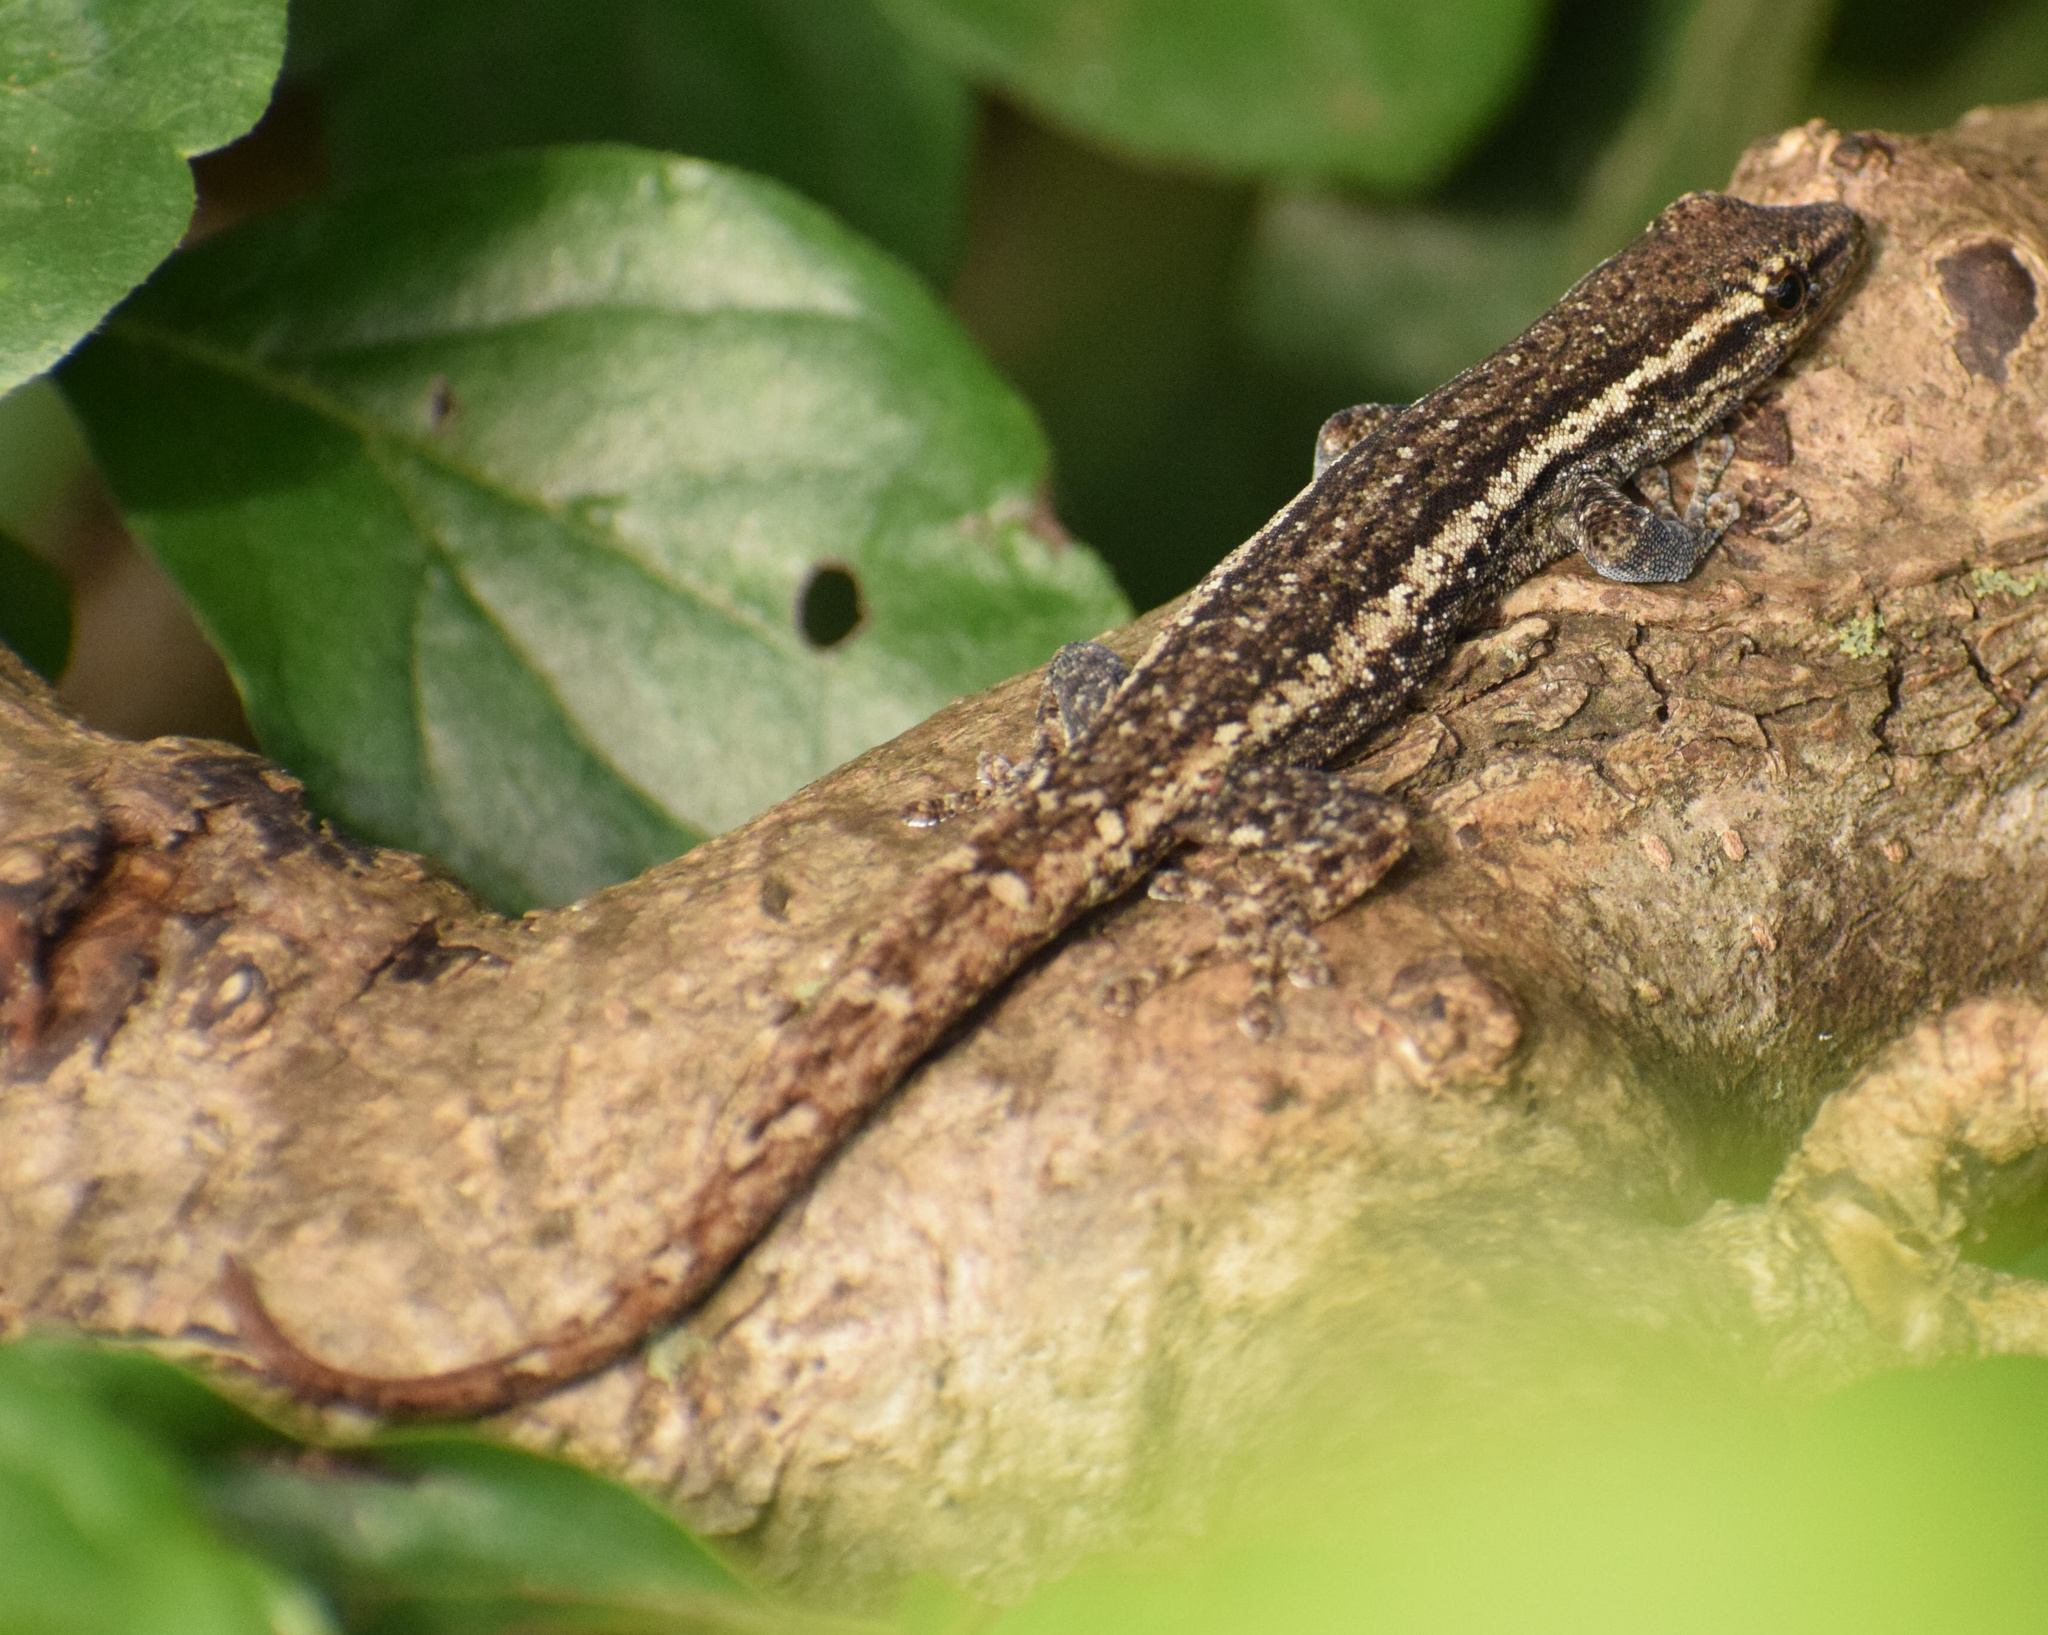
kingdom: Animalia
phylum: Chordata
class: Squamata
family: Gekkonidae
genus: Lygodactylus
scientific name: Lygodactylus capensis
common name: Cape dwarf gecko
